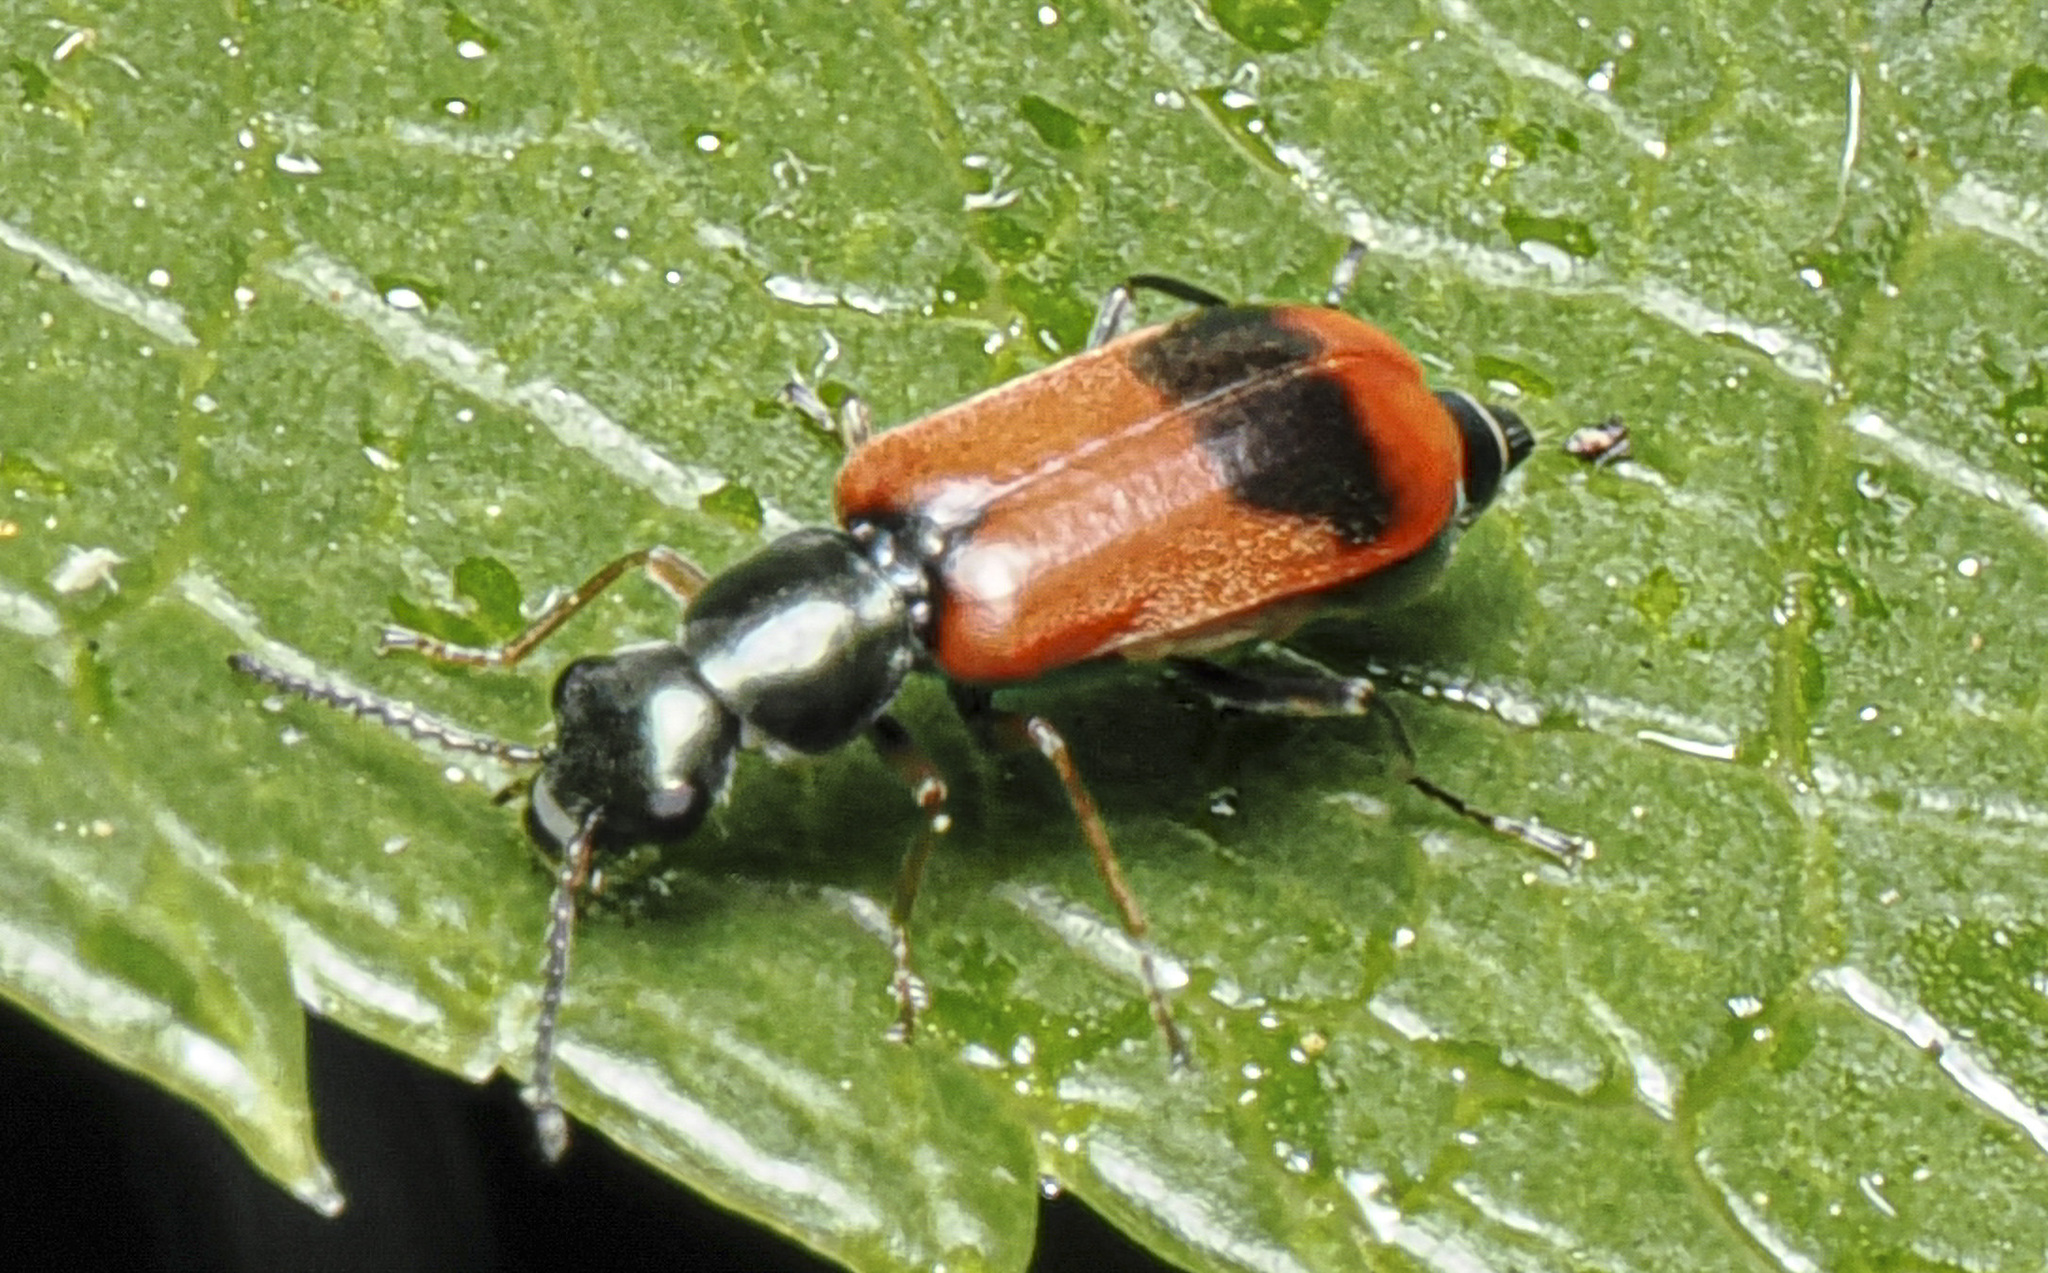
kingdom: Animalia
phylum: Arthropoda
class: Insecta
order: Coleoptera
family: Melyridae
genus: Anthocomus
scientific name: Anthocomus equestris
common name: Black-banded soft-winged flower beetle
